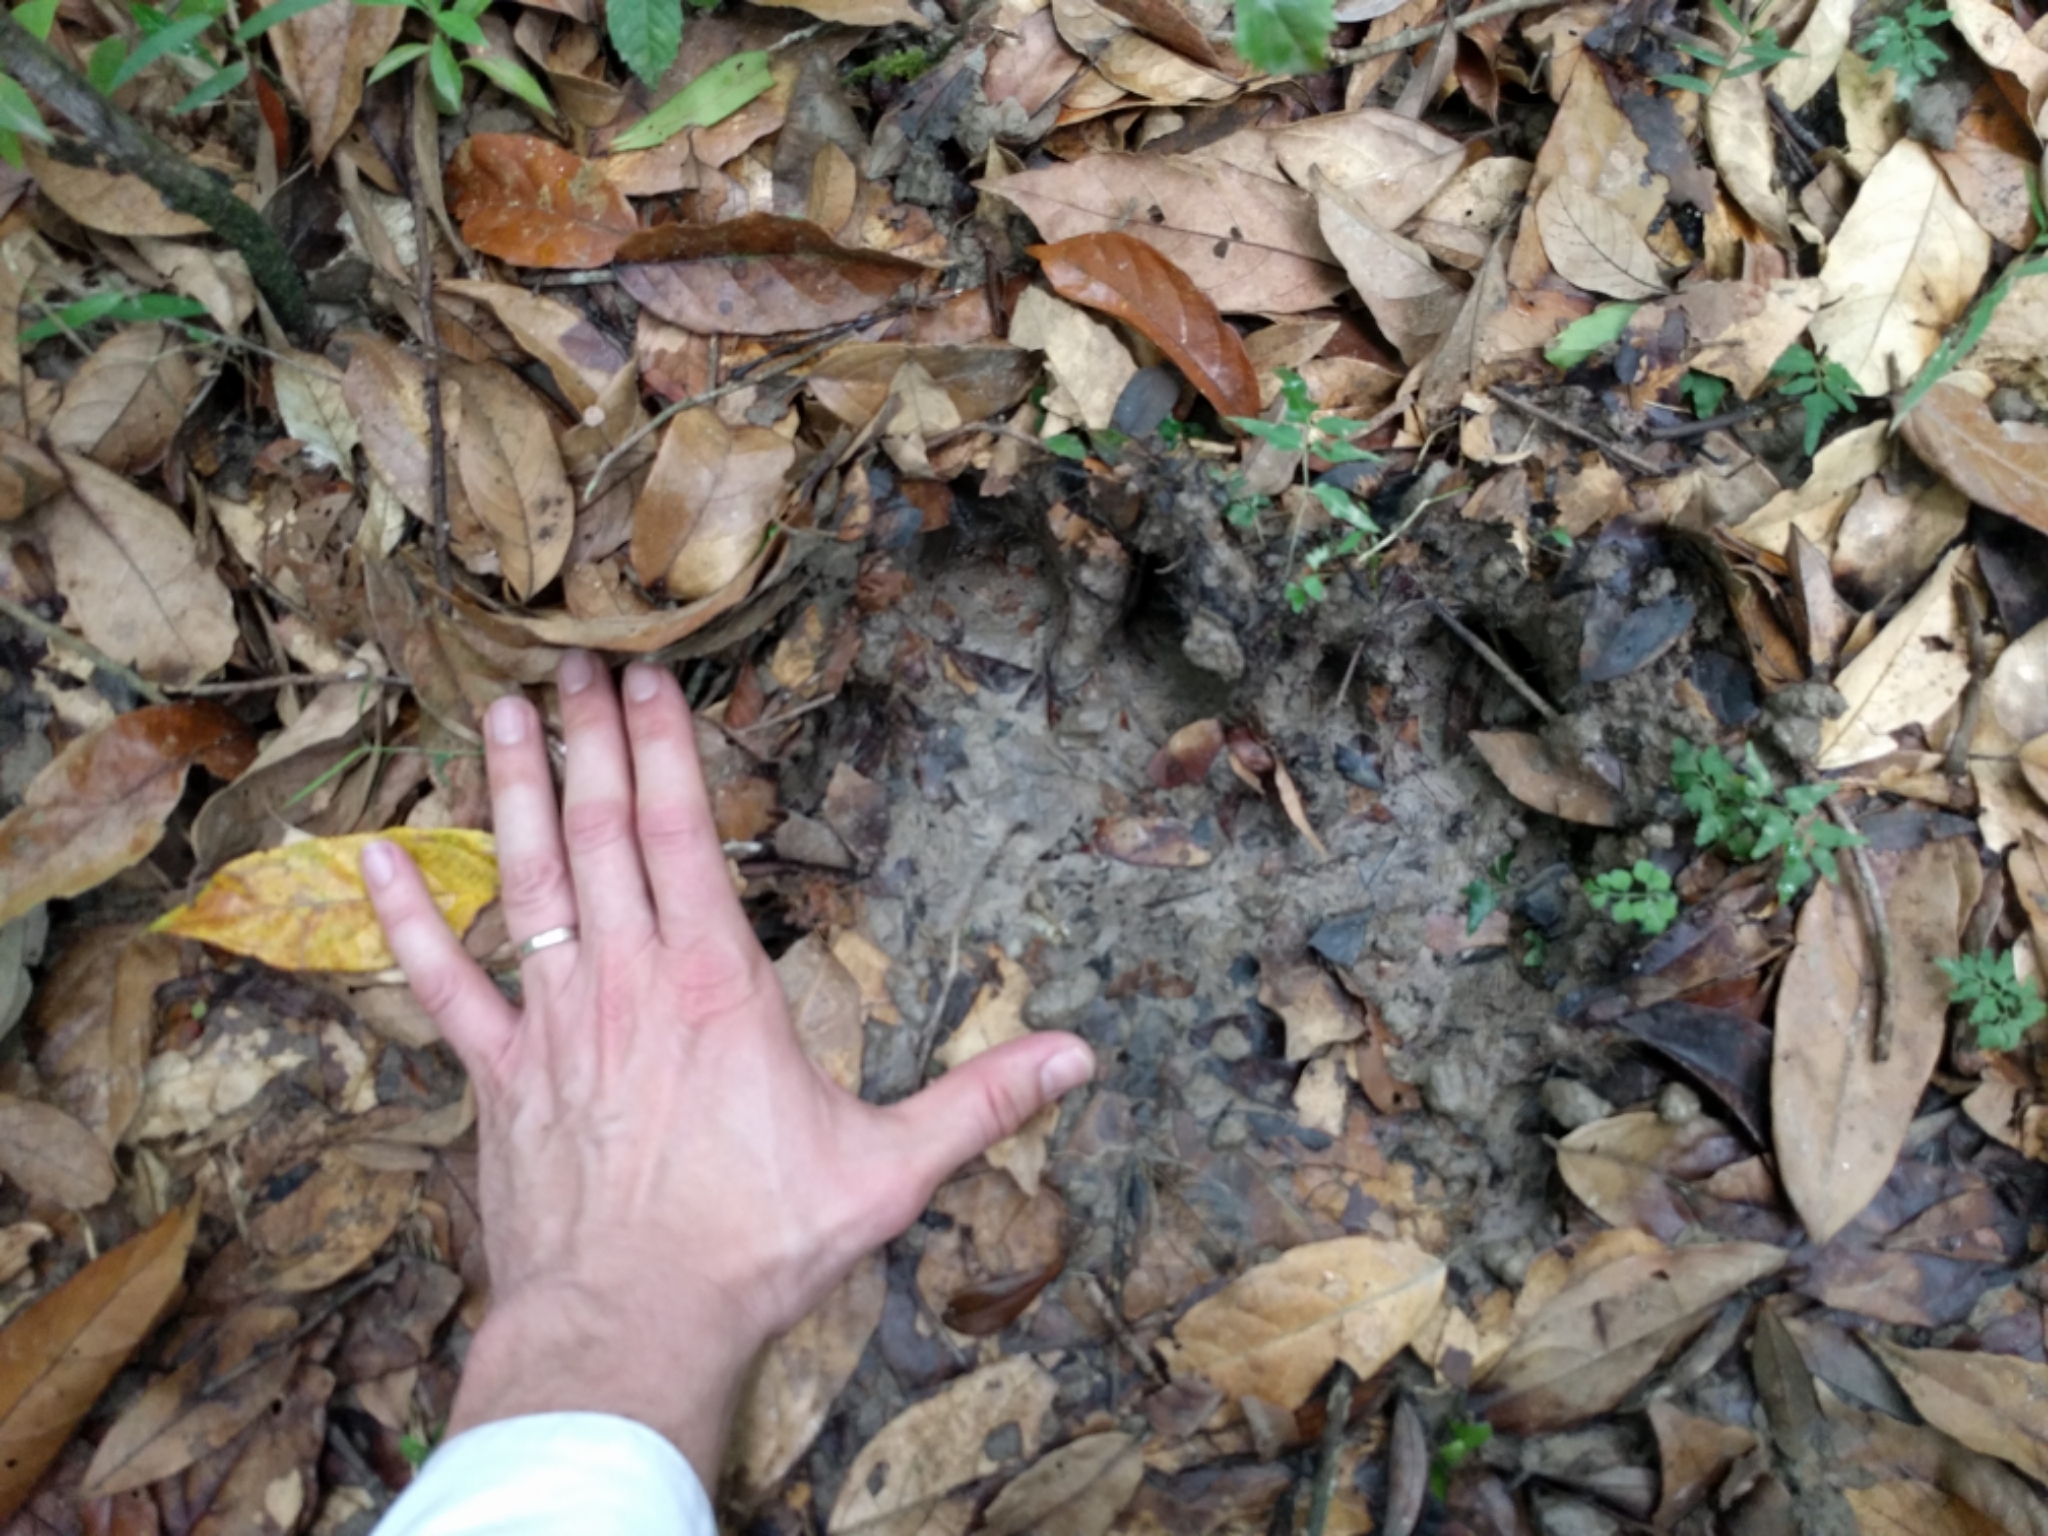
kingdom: Animalia
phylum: Chordata
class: Mammalia
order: Perissodactyla
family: Tapiridae
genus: Acrocodia
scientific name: Acrocodia indica
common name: Malayan tapir
